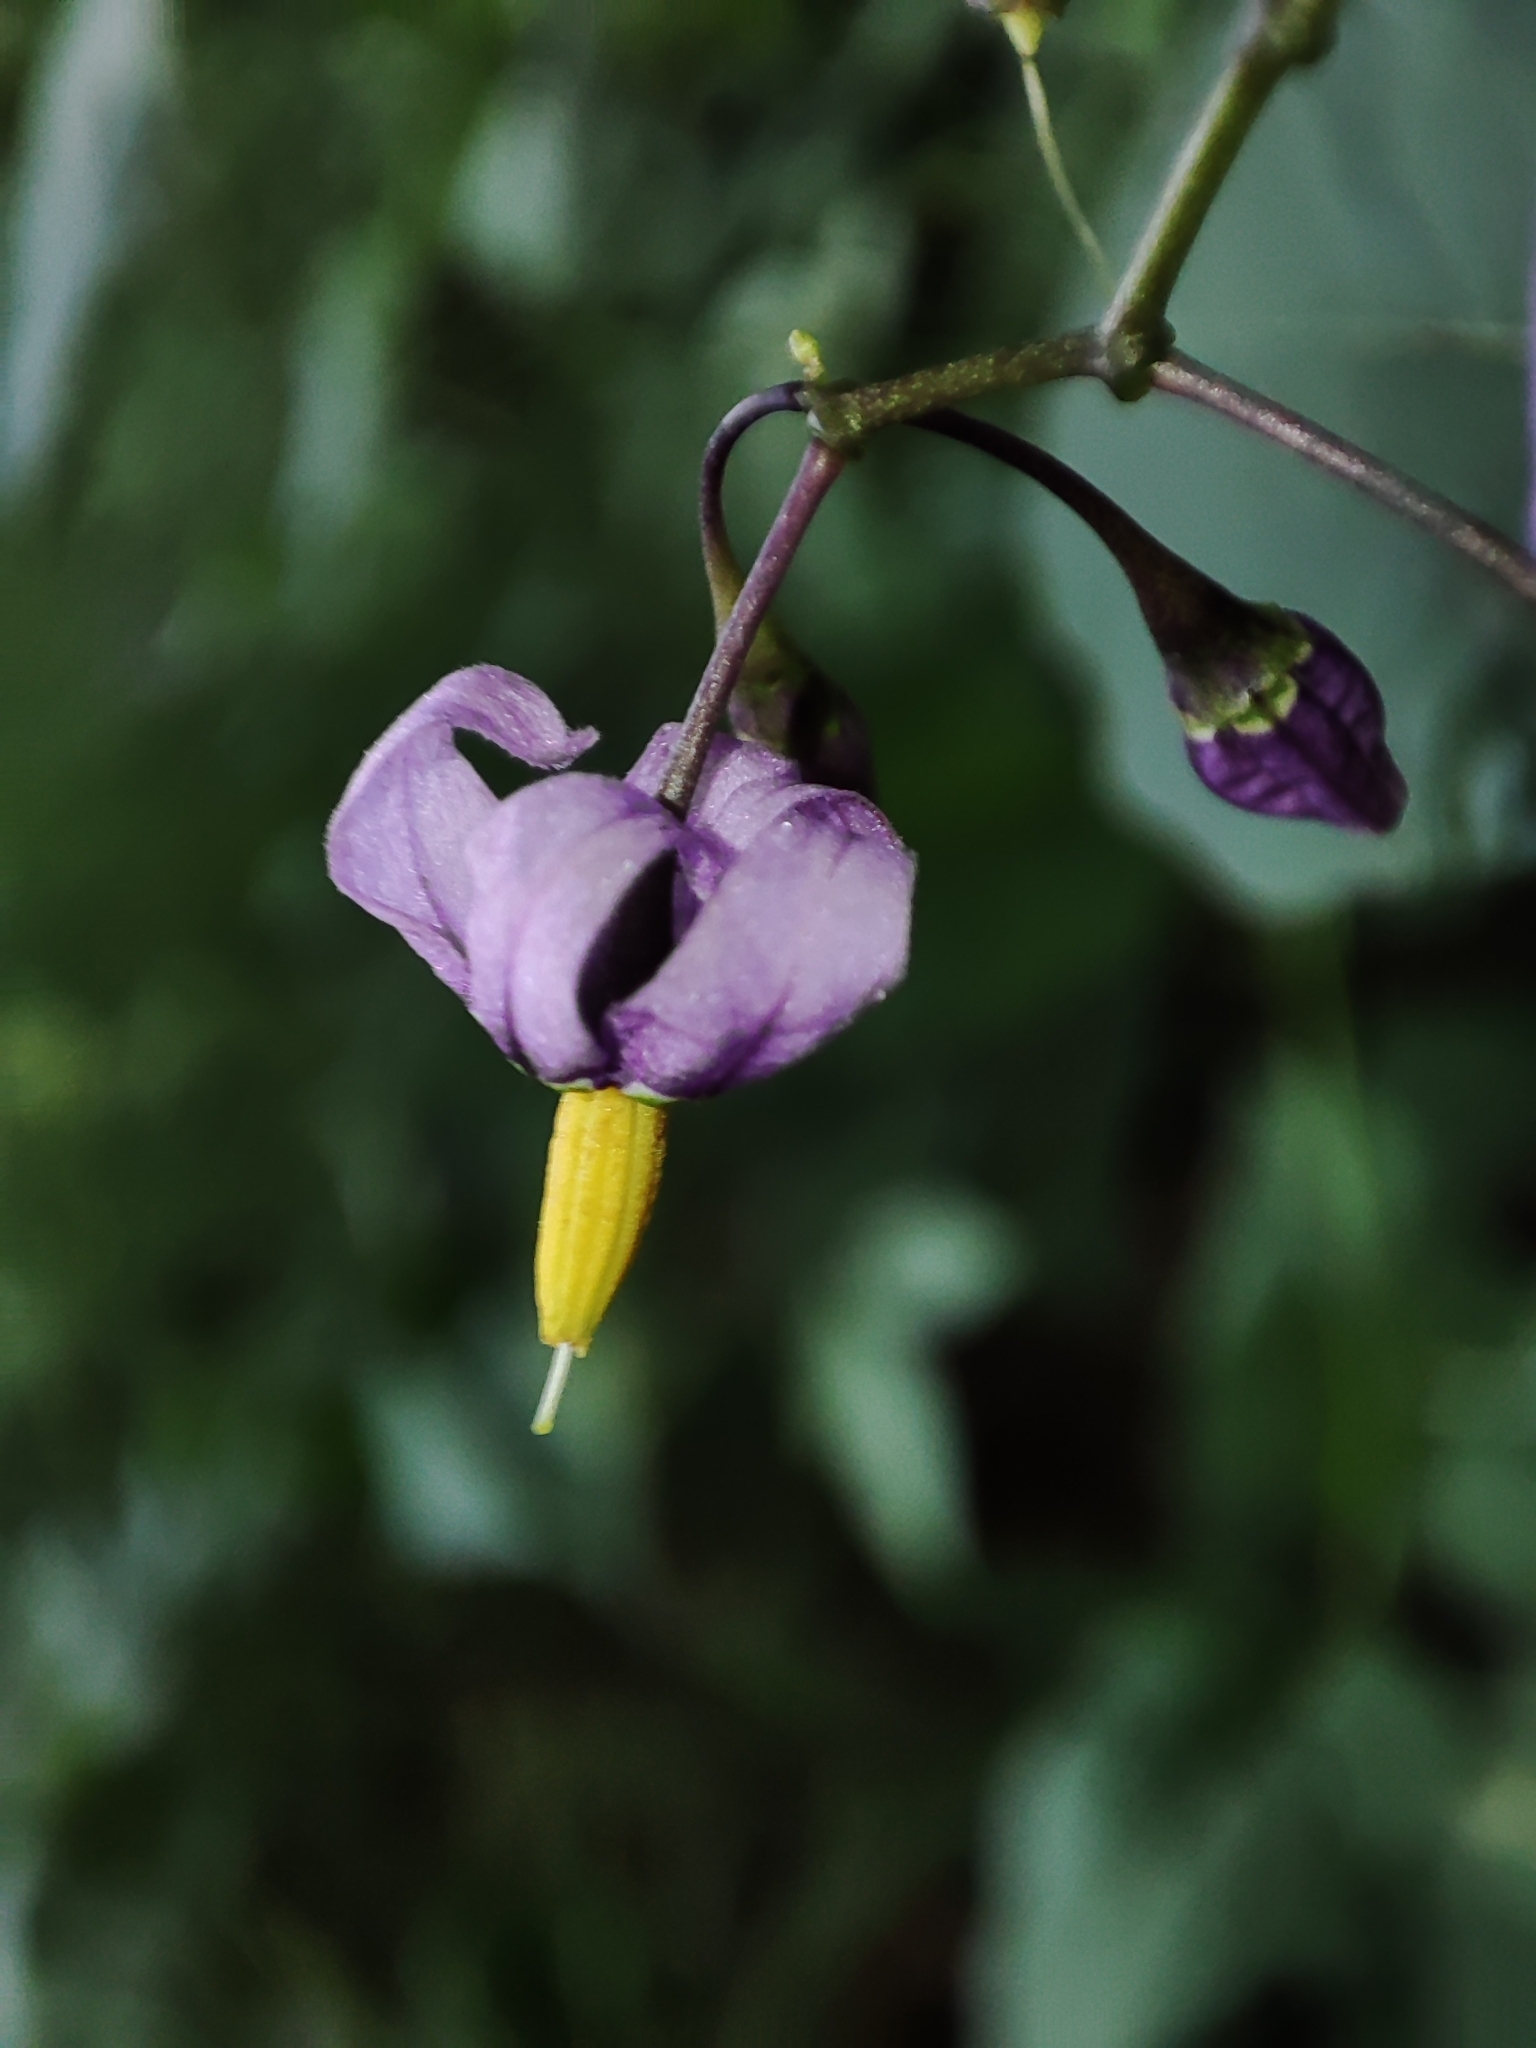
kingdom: Plantae
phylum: Tracheophyta
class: Magnoliopsida
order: Solanales
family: Solanaceae
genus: Solanum
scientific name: Solanum dulcamara
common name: Climbing nightshade
